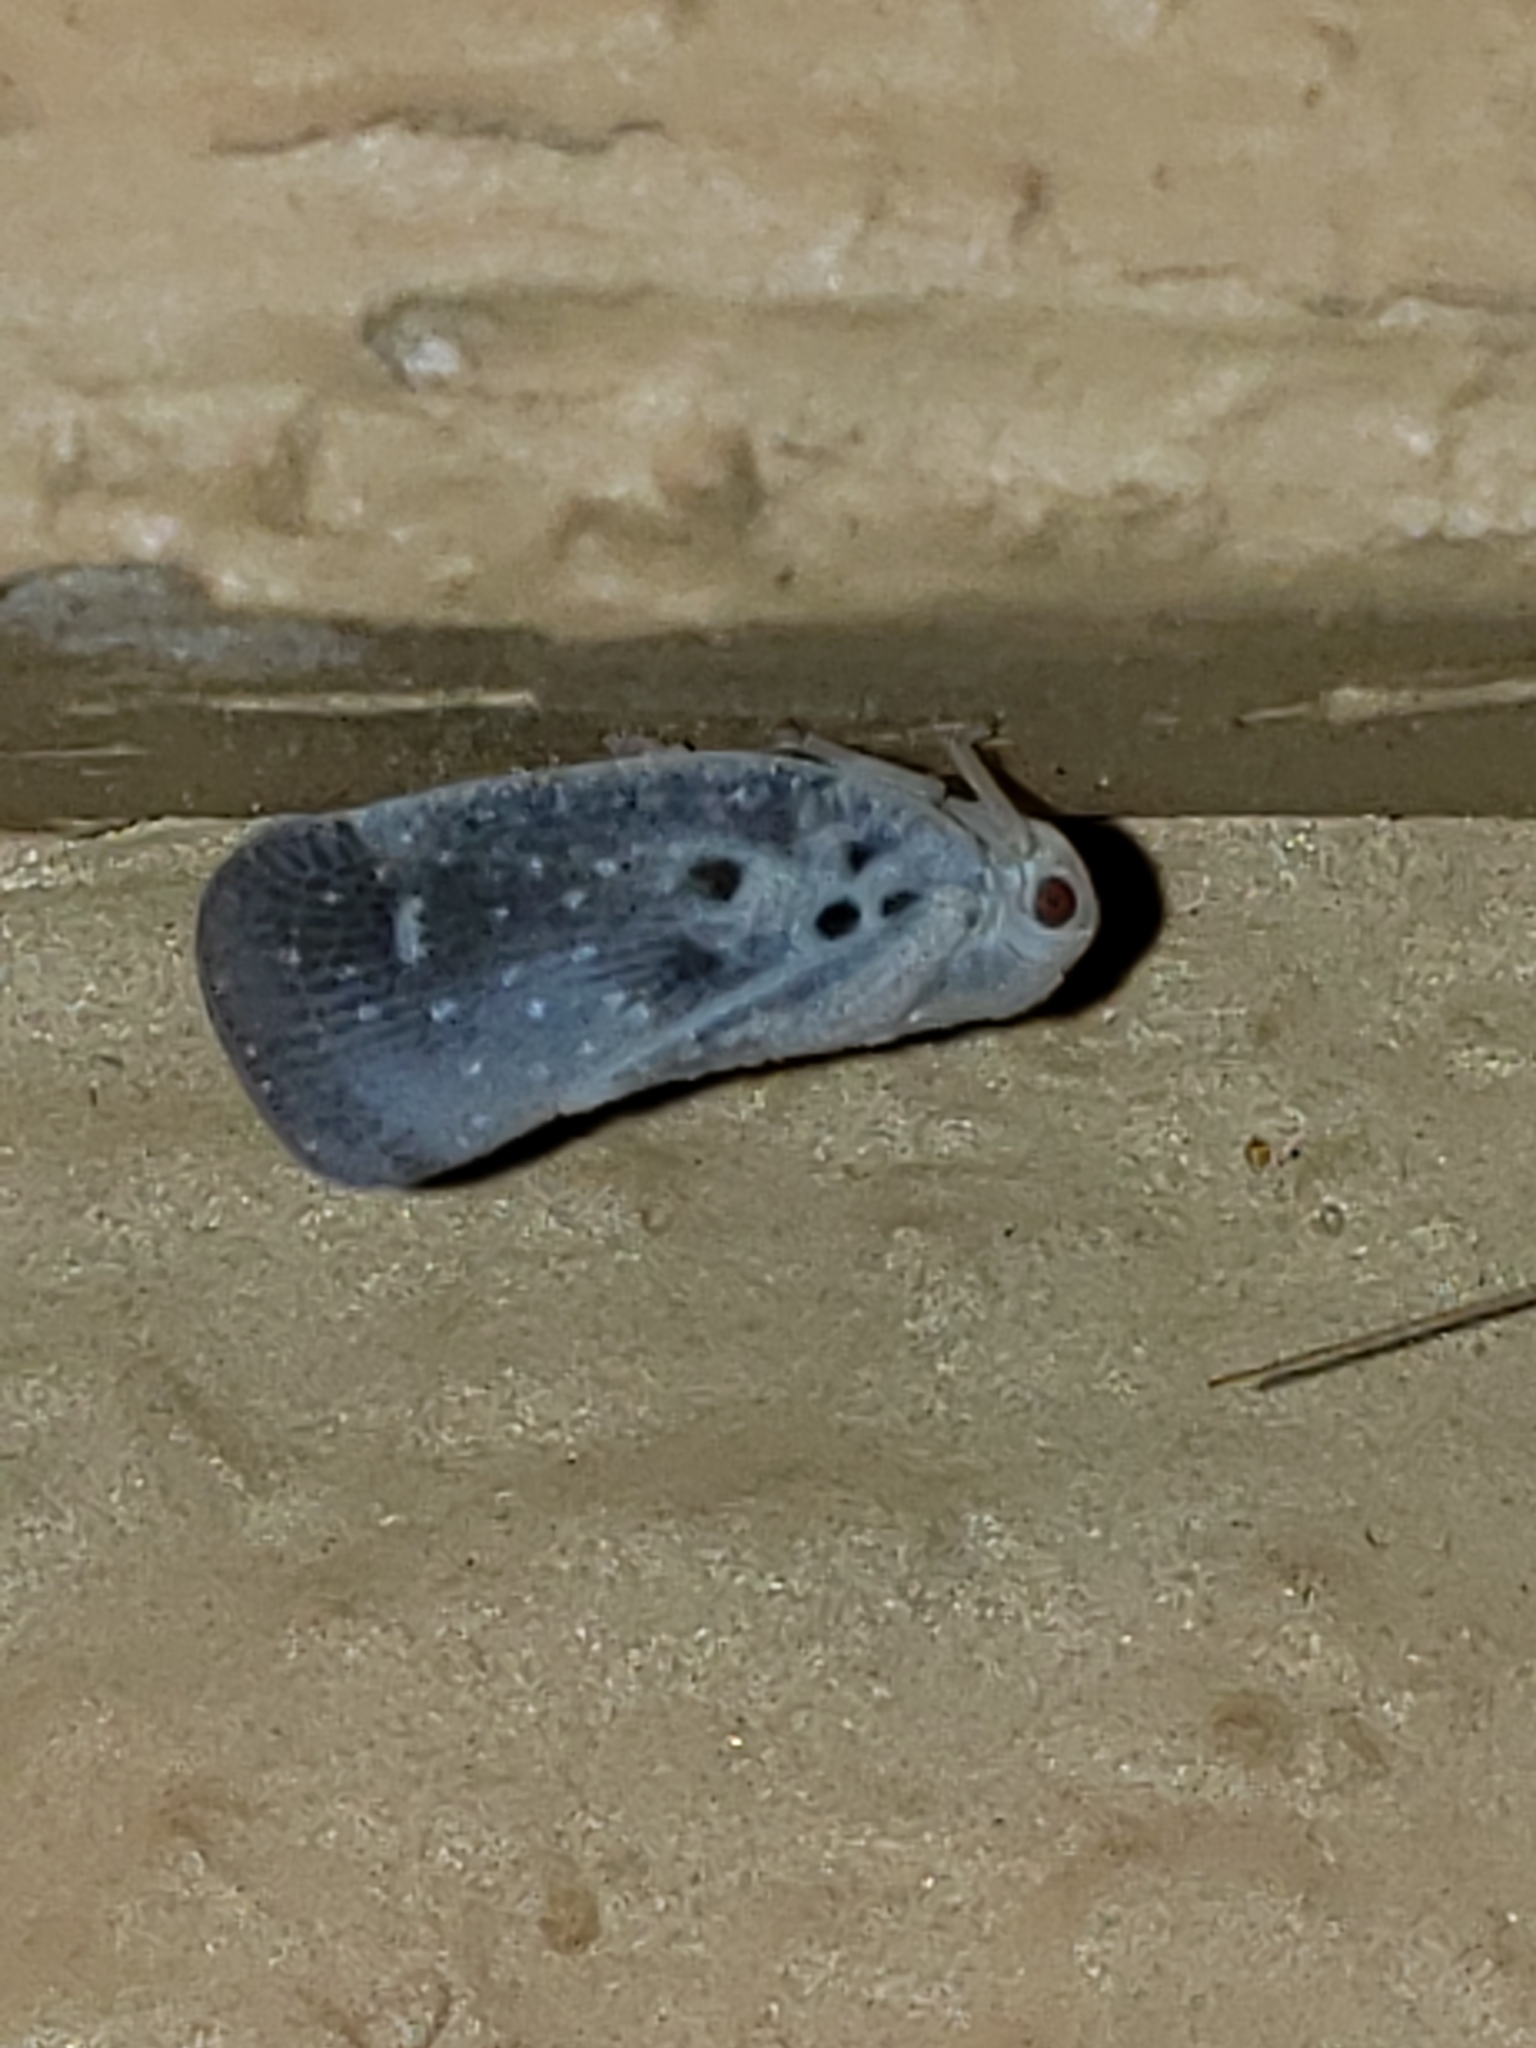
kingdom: Animalia
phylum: Arthropoda
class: Insecta
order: Hemiptera
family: Flatidae
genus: Metcalfa
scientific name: Metcalfa pruinosa
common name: Citrus flatid planthopper
